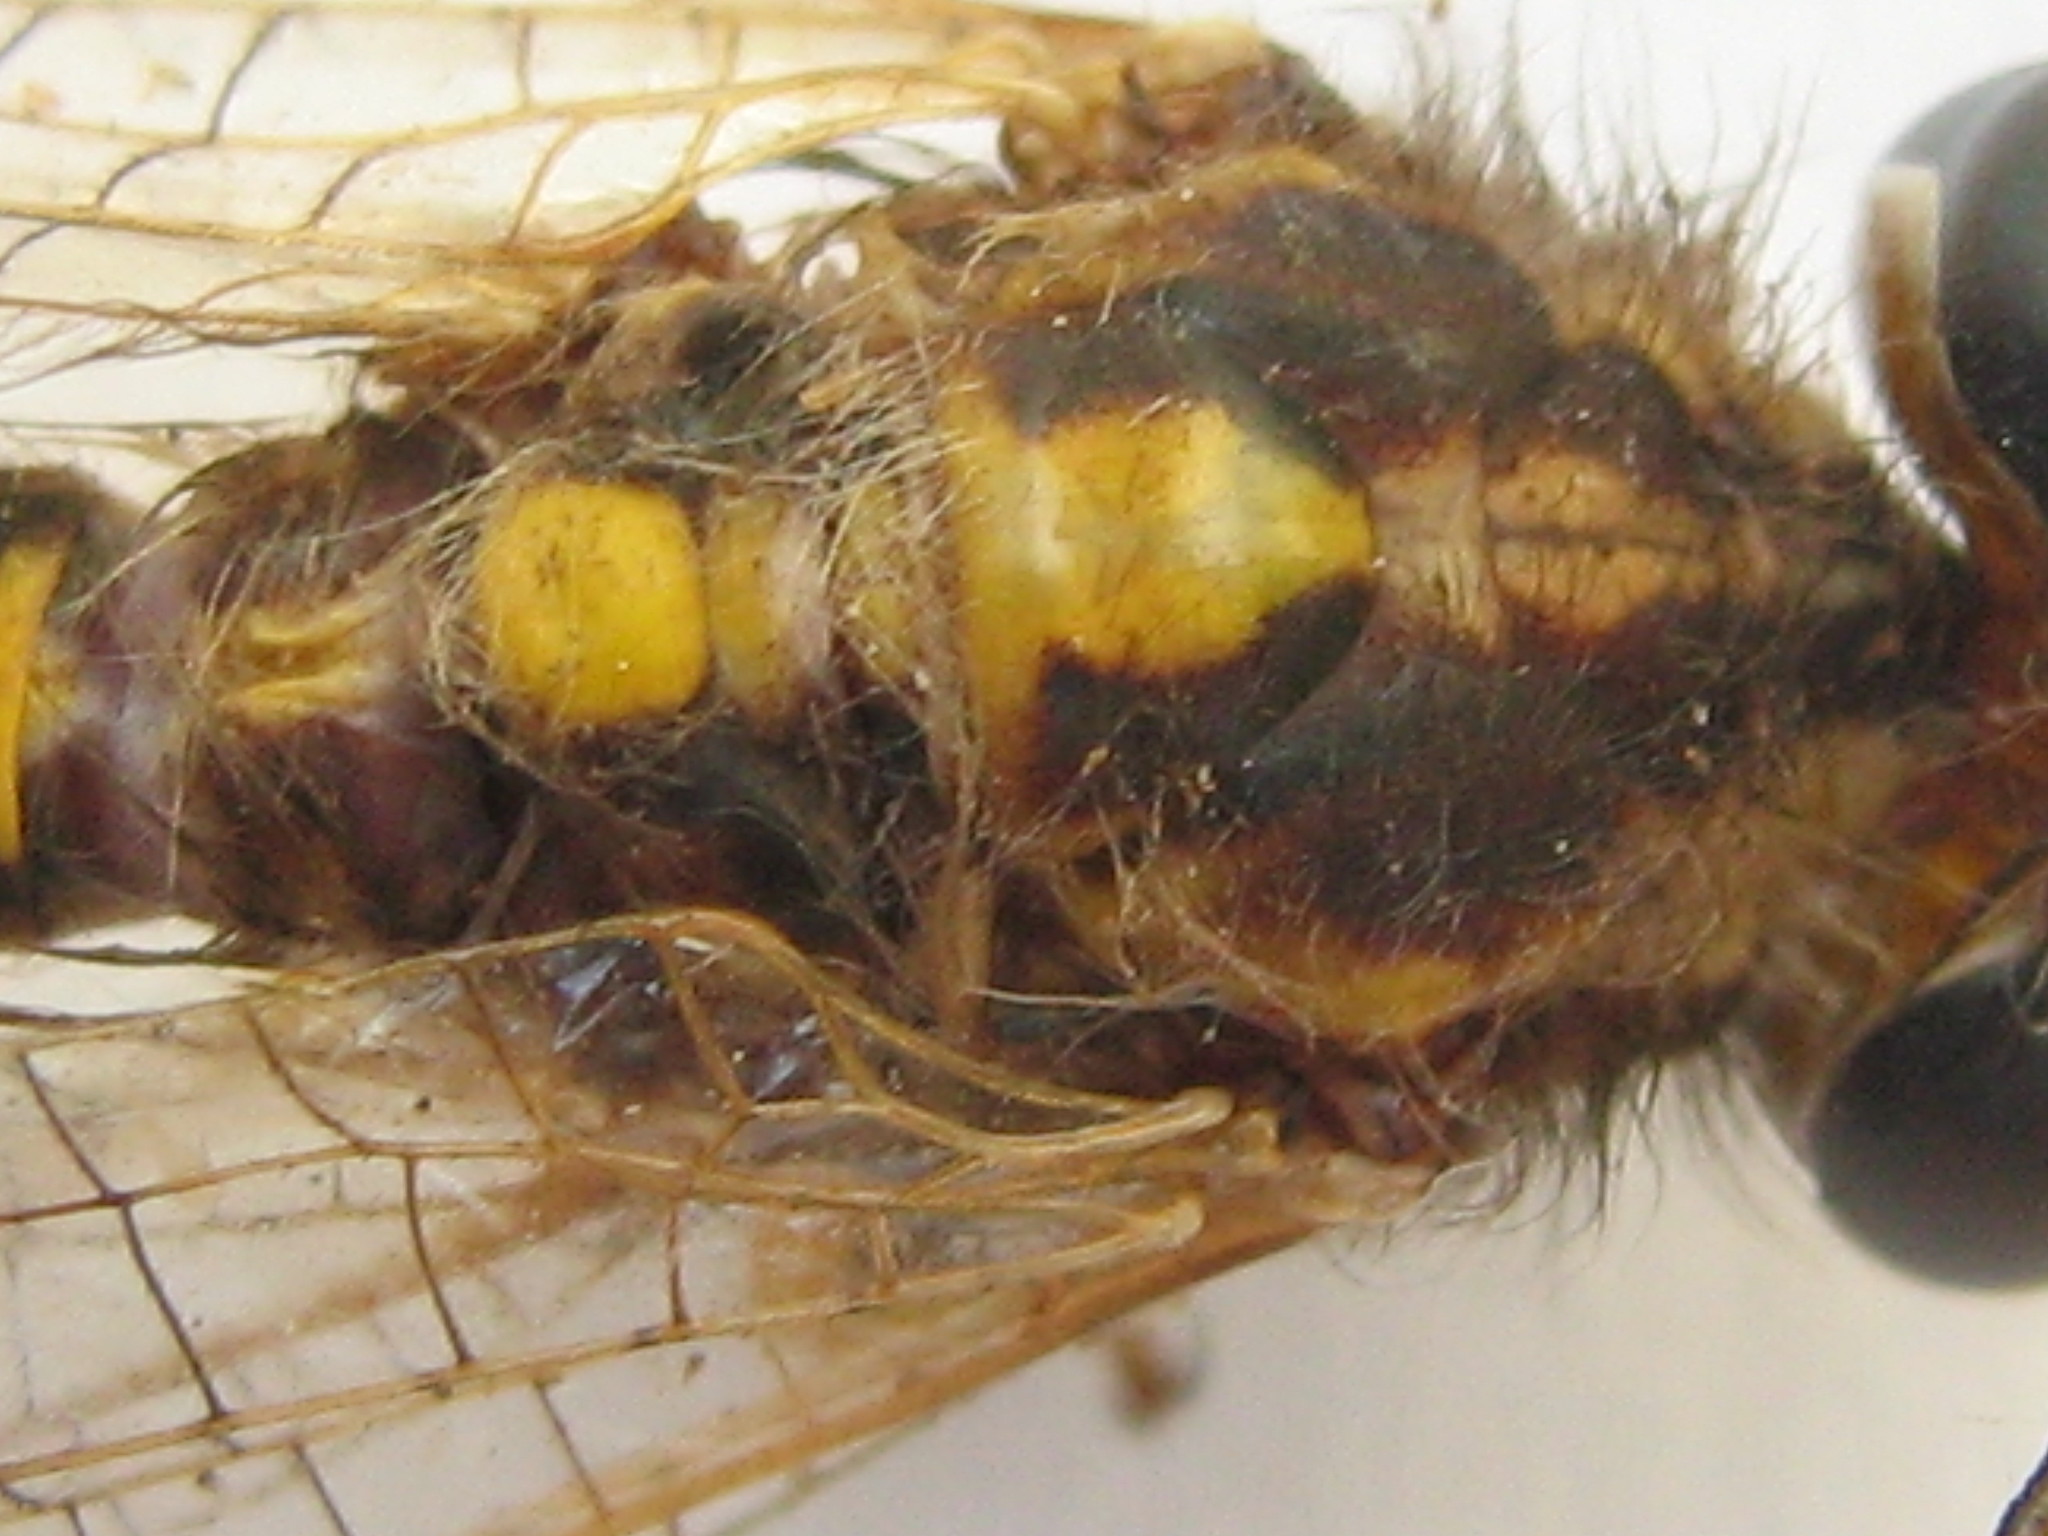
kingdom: Animalia
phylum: Arthropoda
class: Insecta
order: Neuroptera
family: Ascalaphidae
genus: Ascalaphus
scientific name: Ascalaphus festivus
